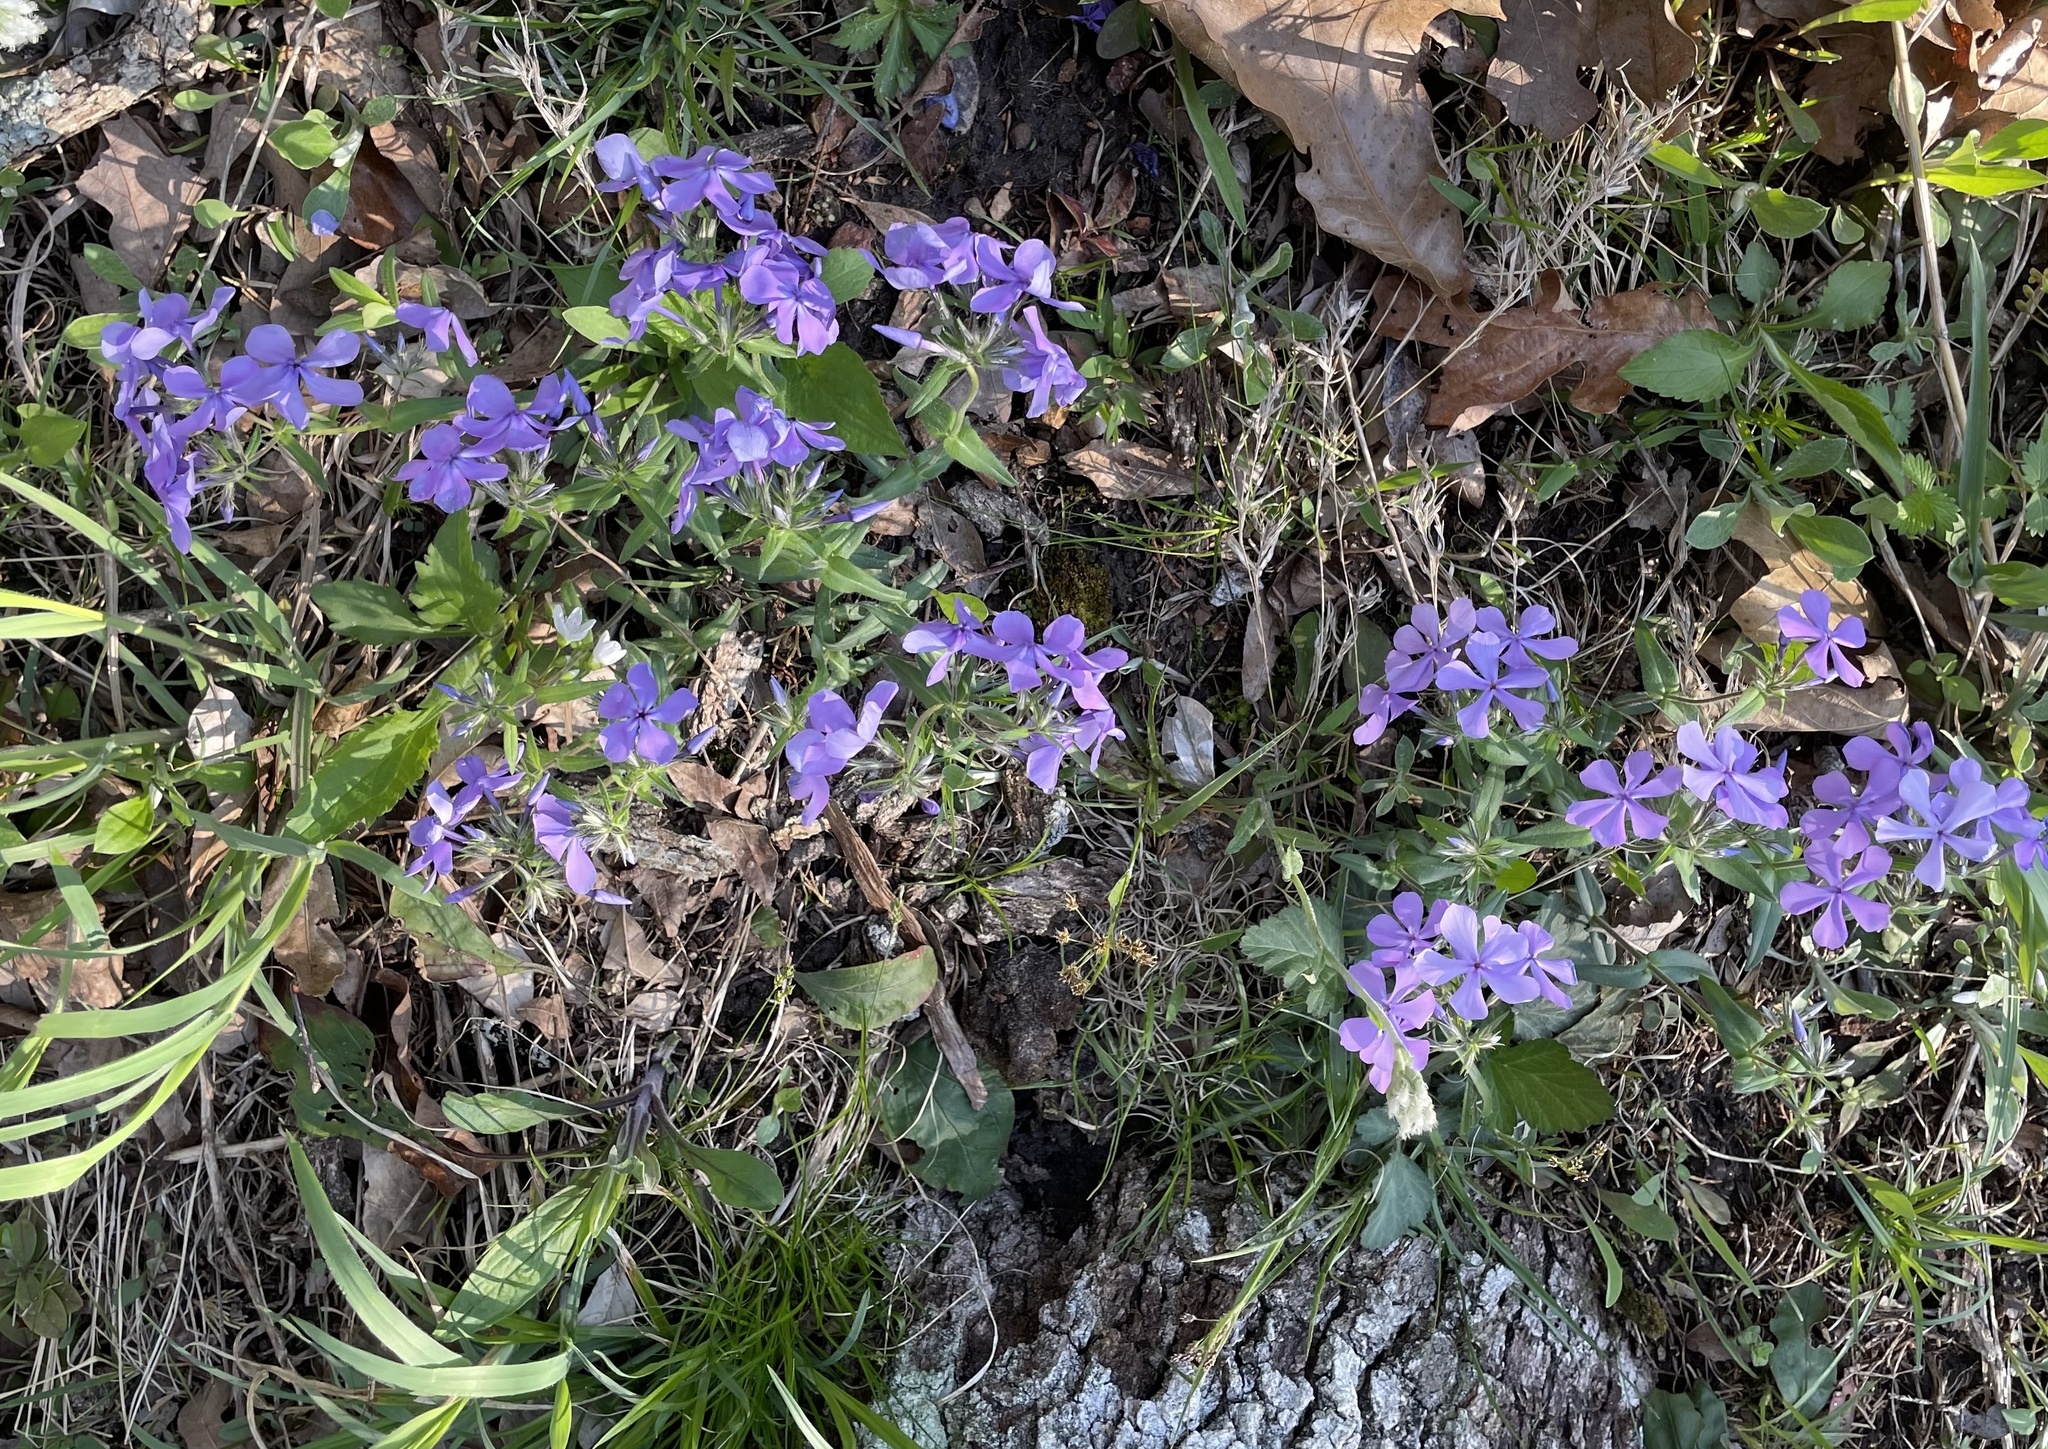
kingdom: Plantae
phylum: Tracheophyta
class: Magnoliopsida
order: Ericales
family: Polemoniaceae
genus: Phlox
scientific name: Phlox divaricata
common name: Blue phlox
